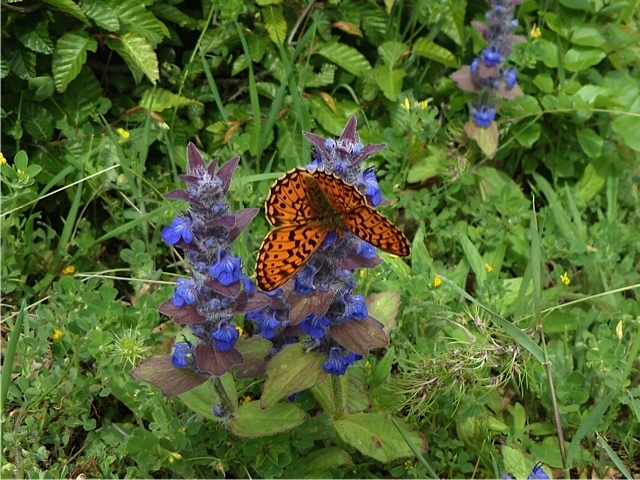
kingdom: Animalia
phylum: Arthropoda
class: Insecta
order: Lepidoptera
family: Nymphalidae
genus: Clossiana
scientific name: Clossiana euphrosyne
